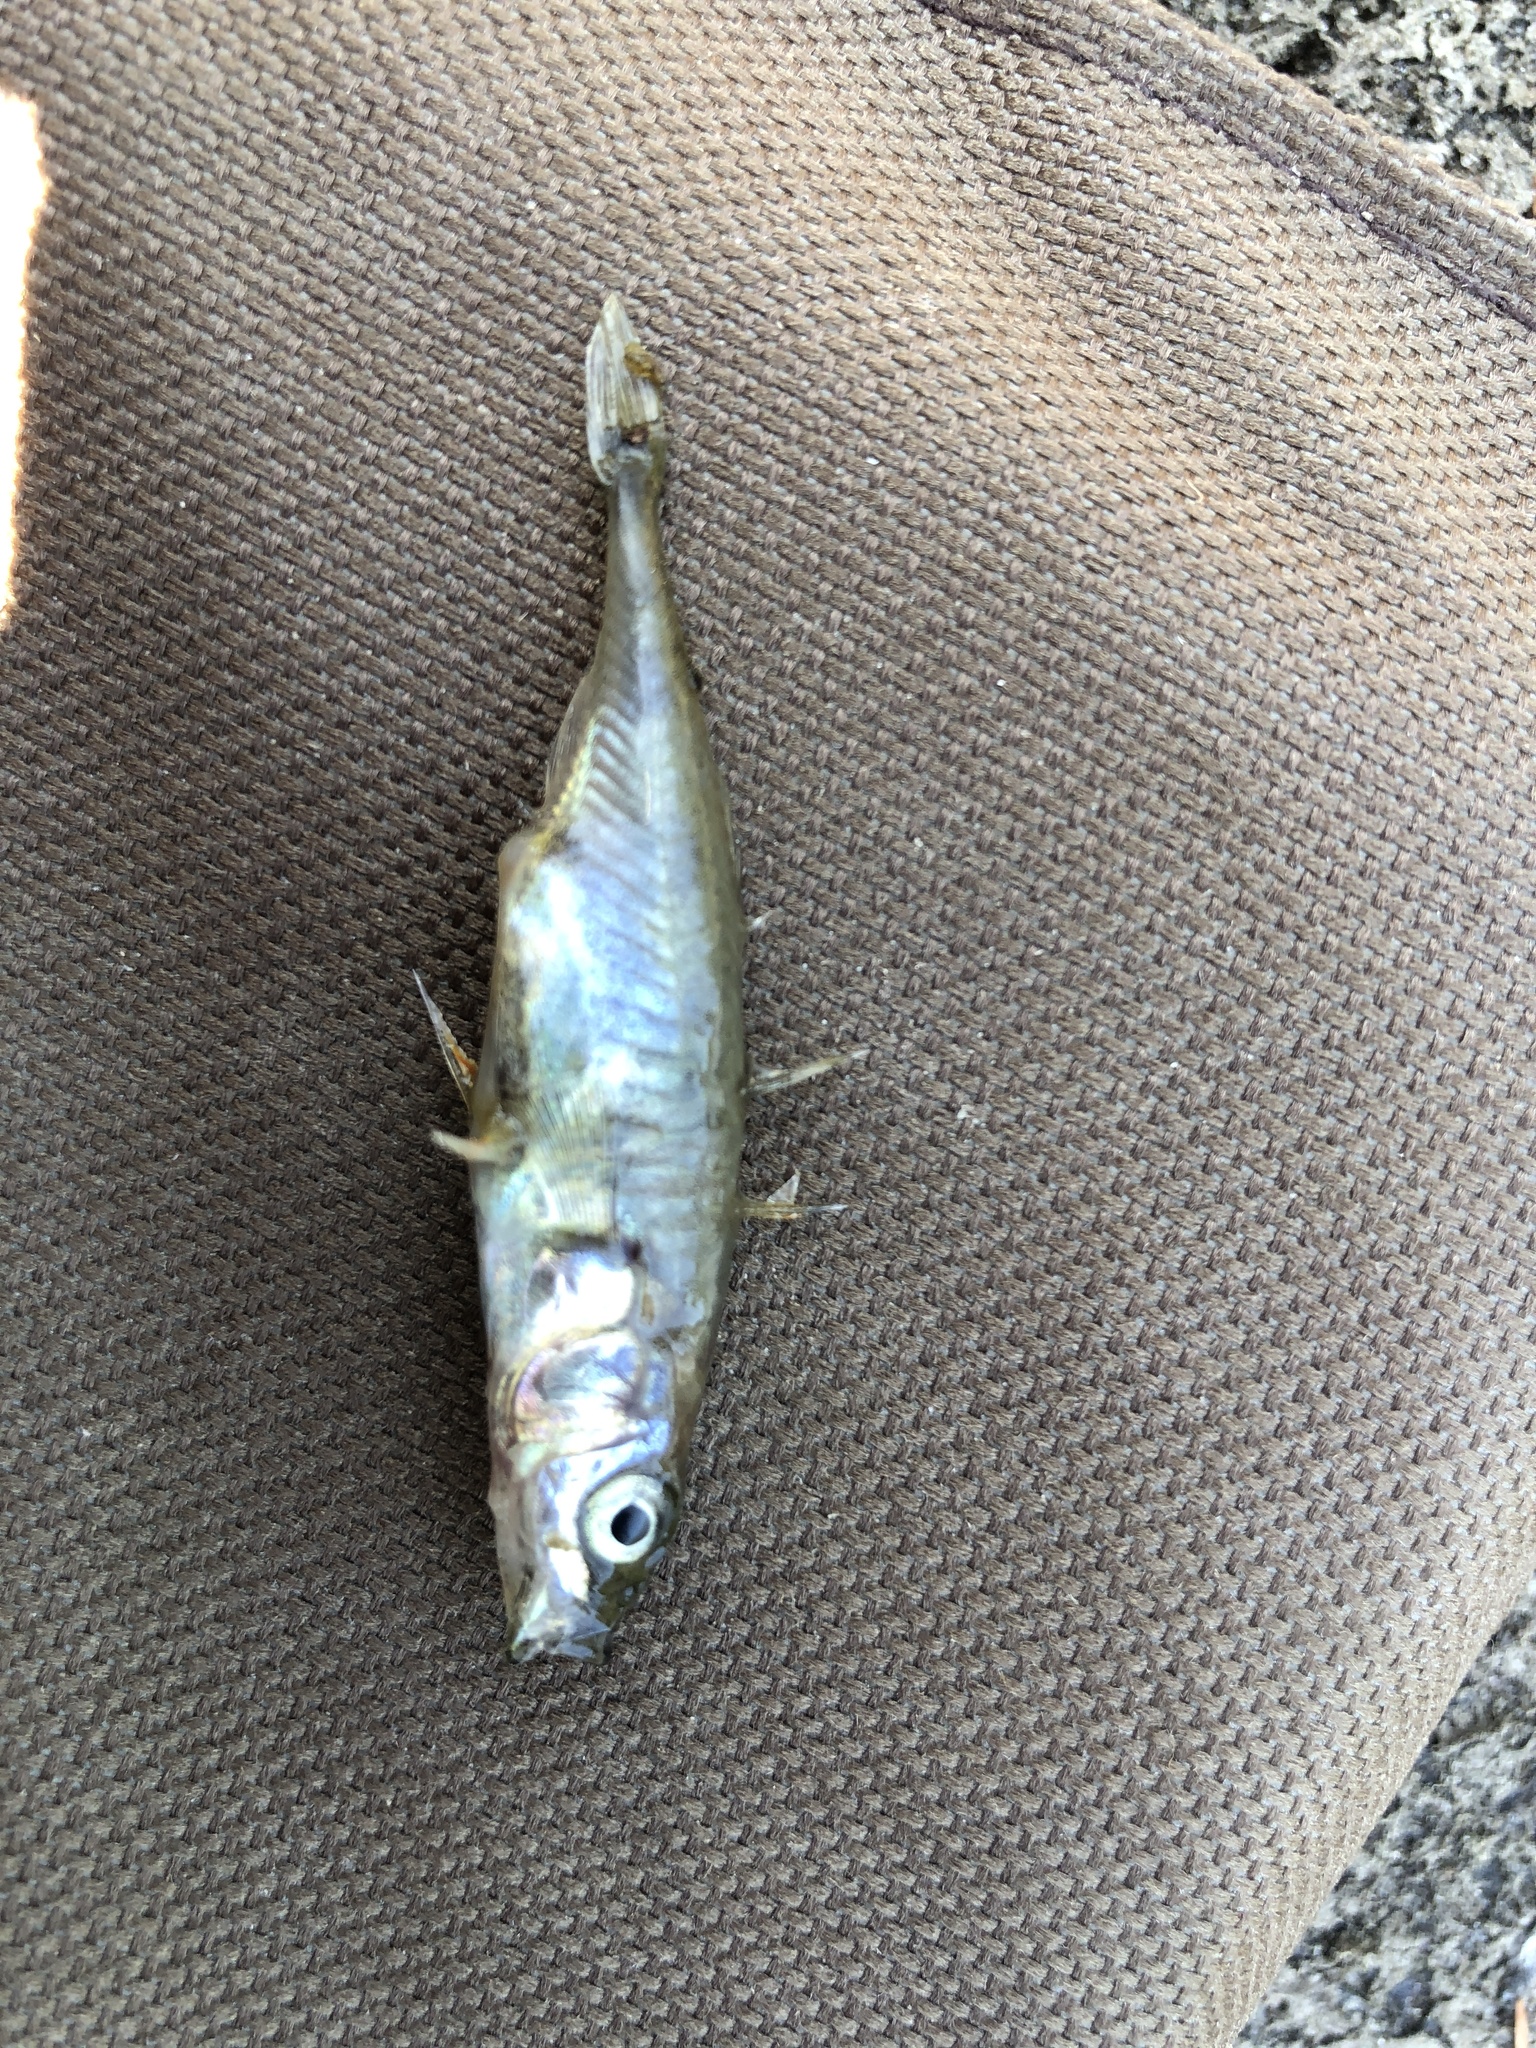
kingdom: Animalia
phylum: Chordata
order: Gasterosteiformes
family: Gasterosteidae
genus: Gasterosteus
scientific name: Gasterosteus aculeatus
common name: Three-spined stickleback
